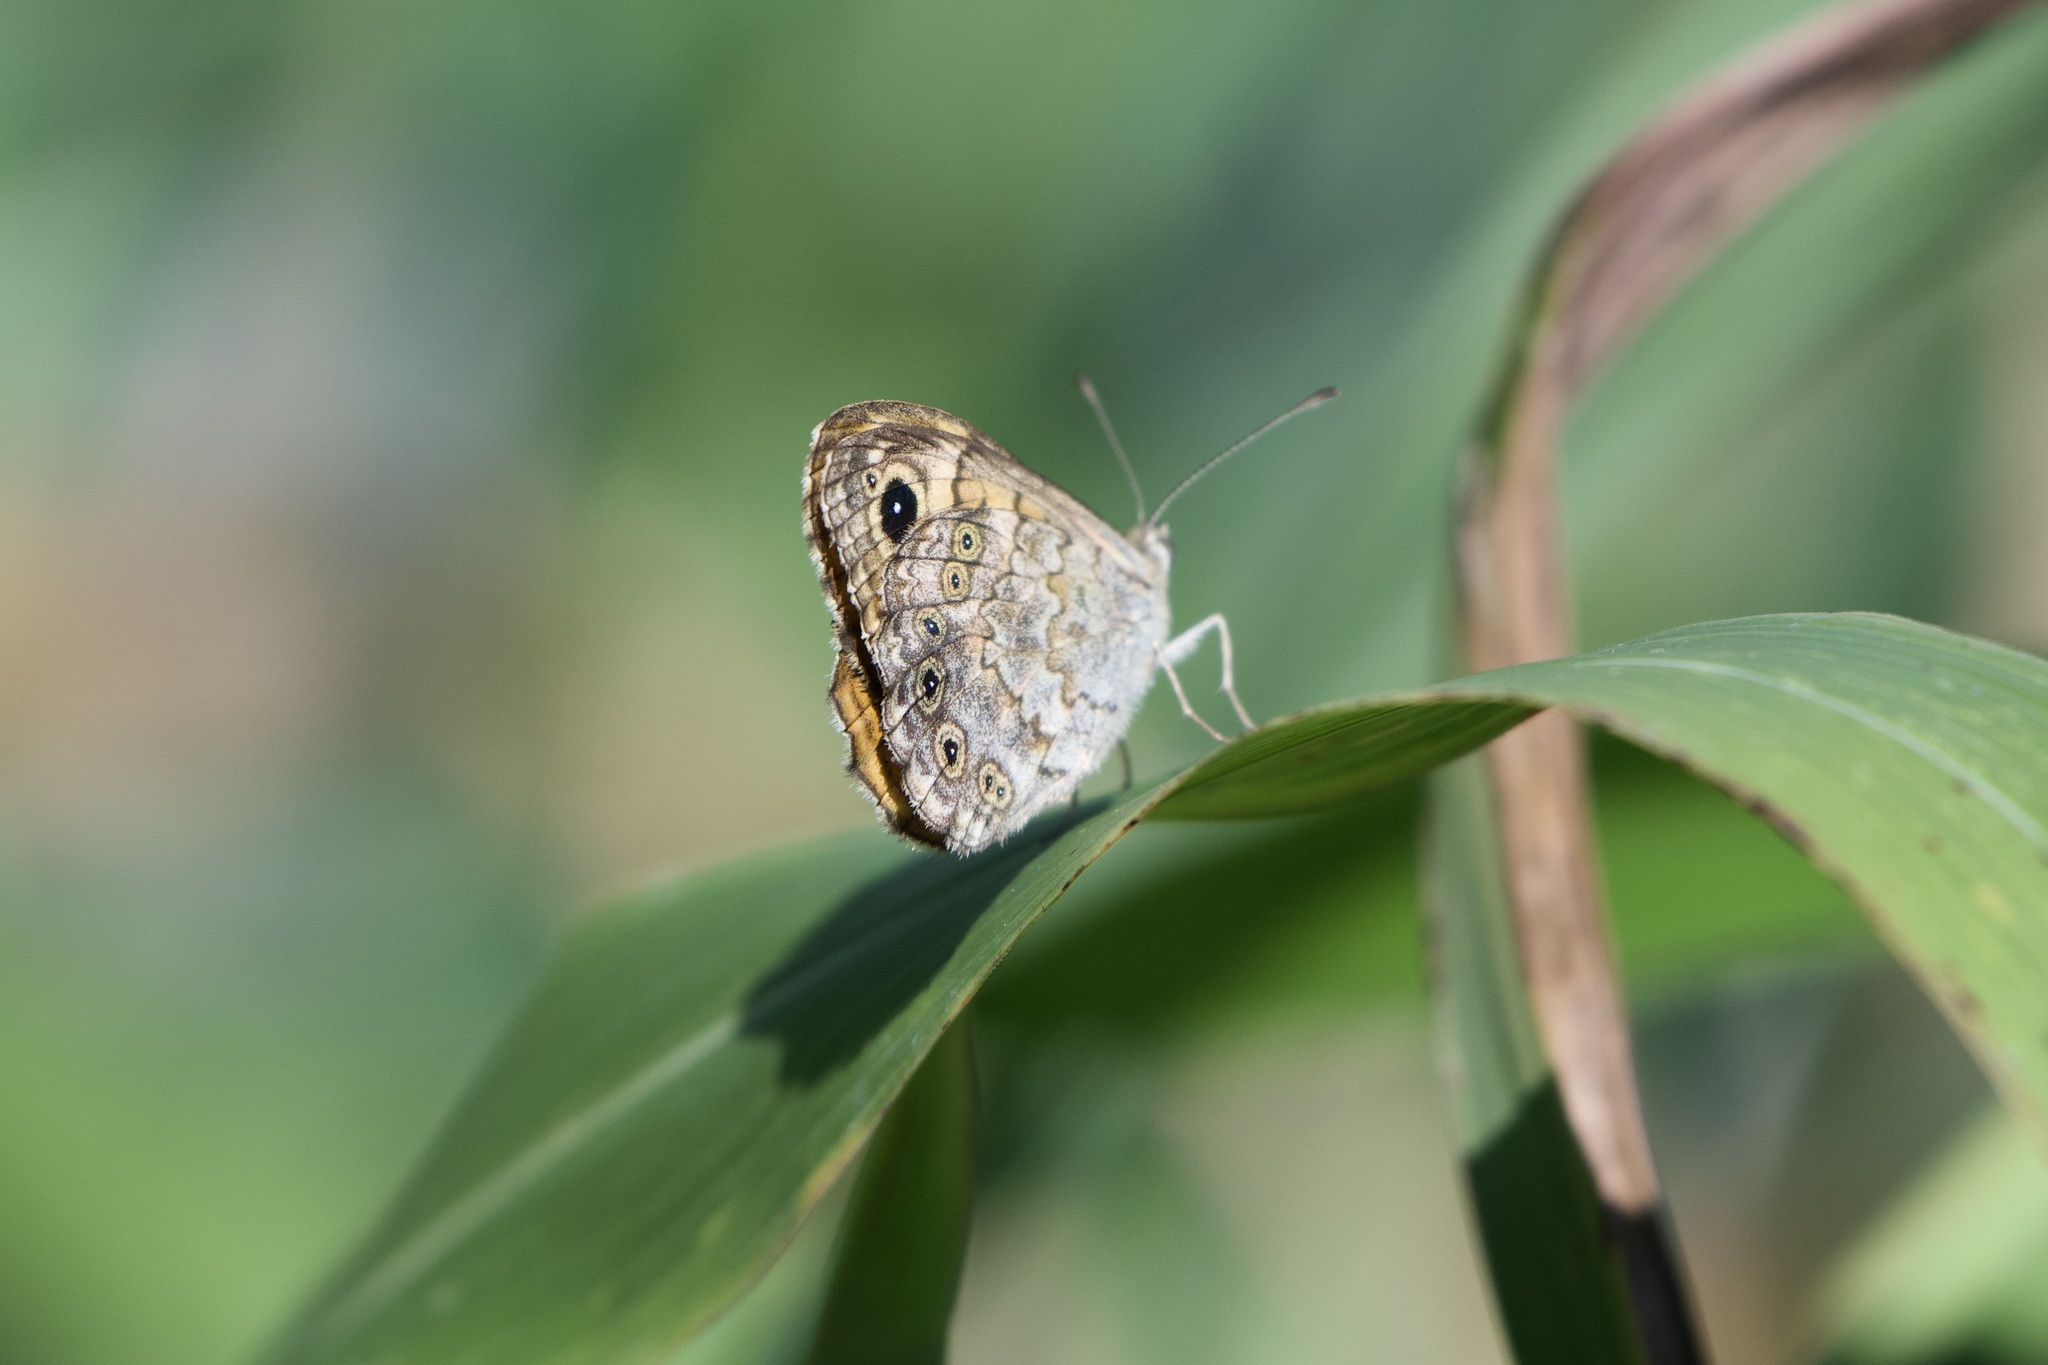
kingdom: Animalia
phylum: Arthropoda
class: Insecta
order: Lepidoptera
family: Nymphalidae
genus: Pararge
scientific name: Pararge Lasiommata megera
